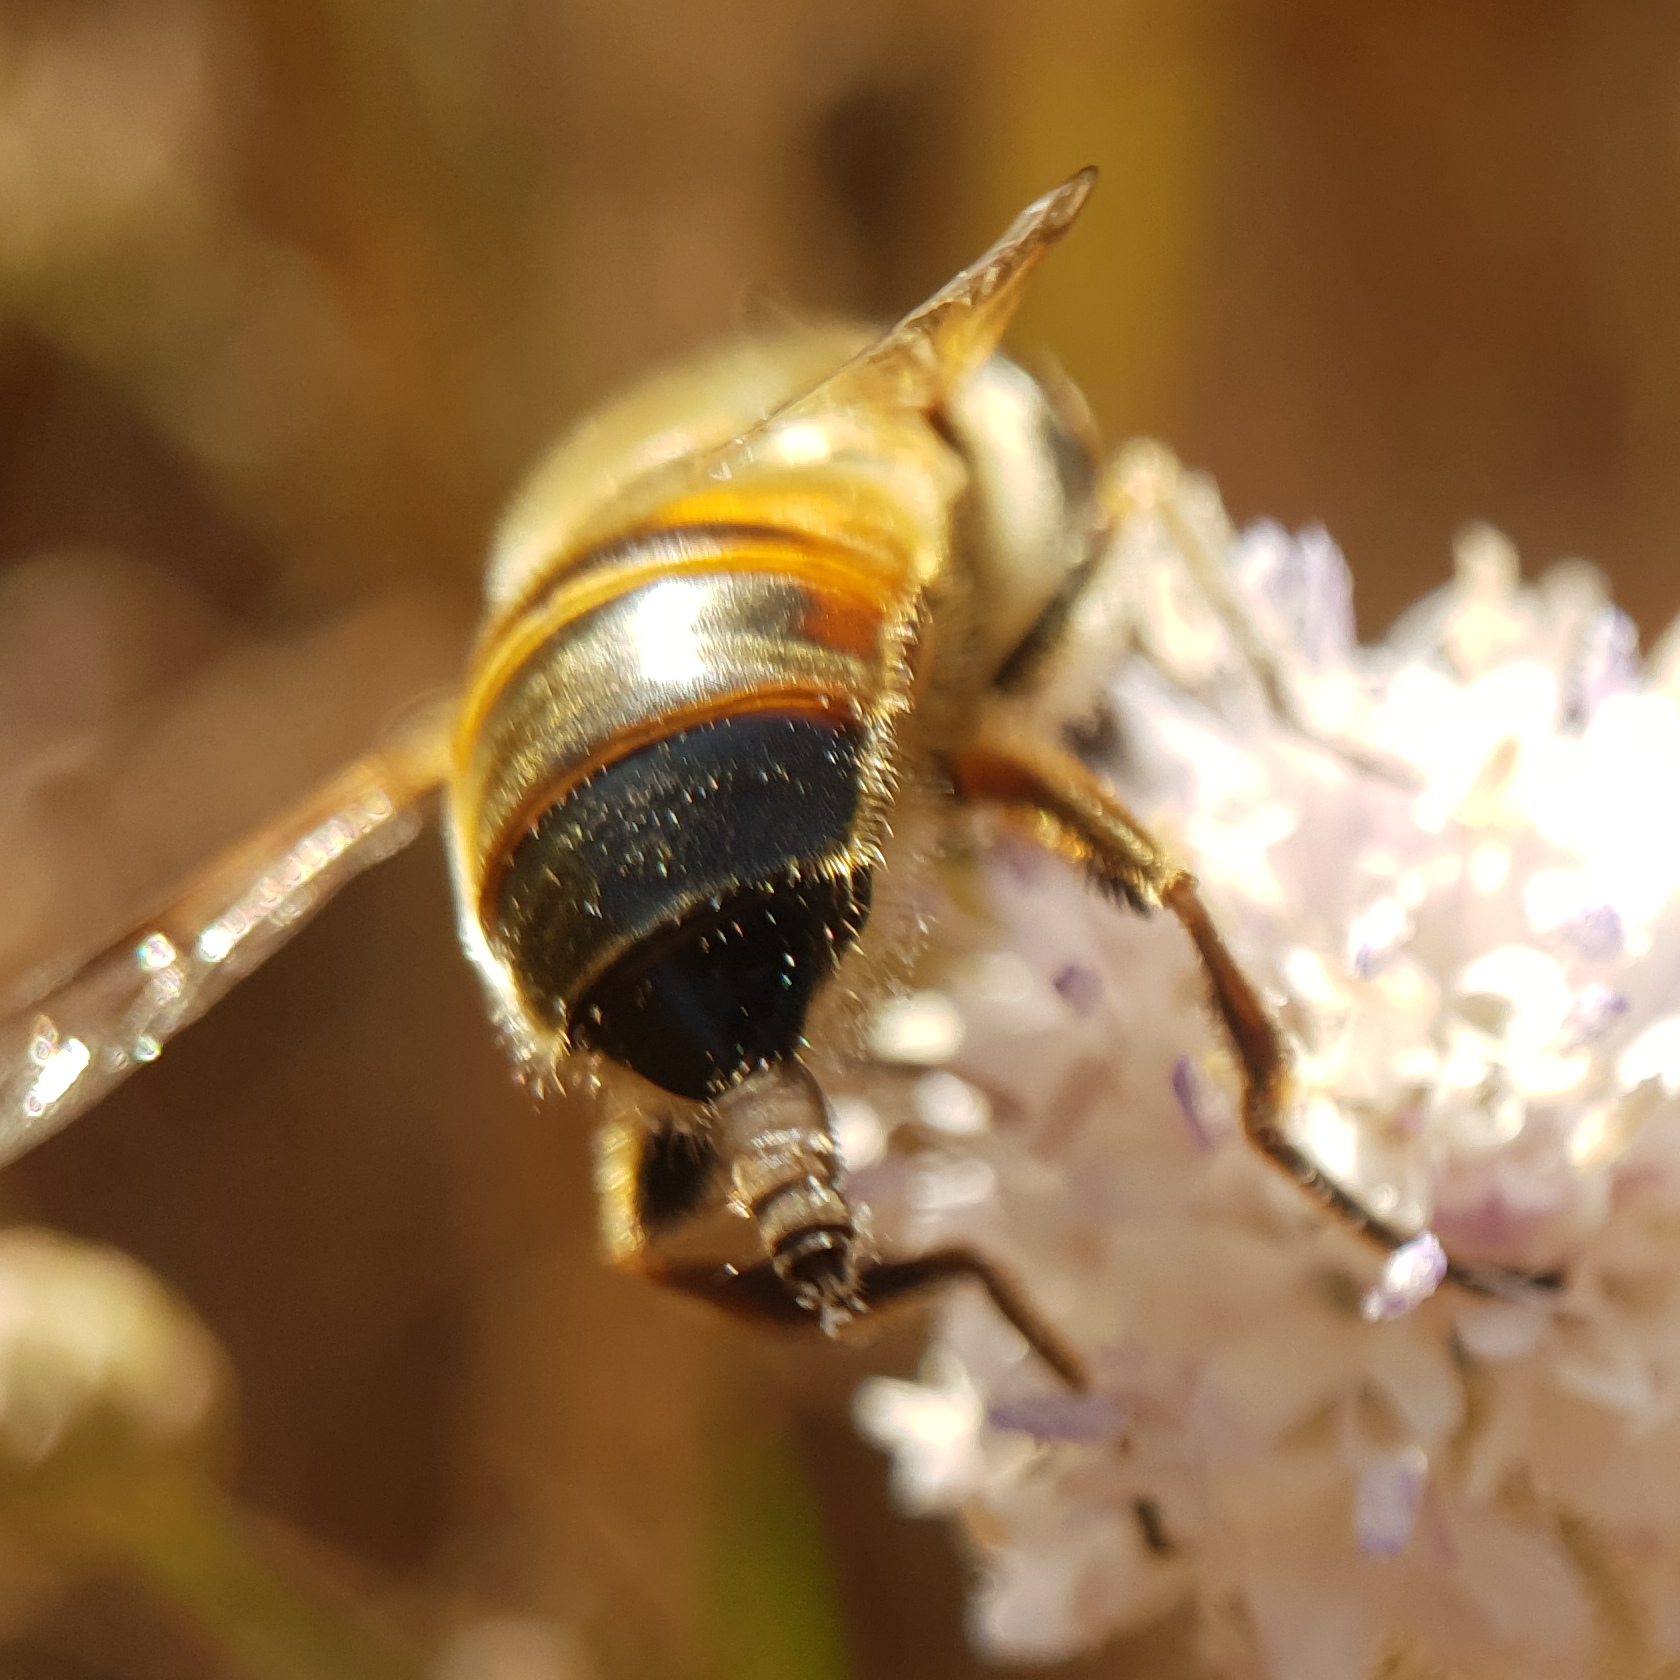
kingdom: Animalia
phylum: Arthropoda
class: Insecta
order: Diptera
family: Syrphidae
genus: Eristalis
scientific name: Eristalis tenax
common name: Drone fly
